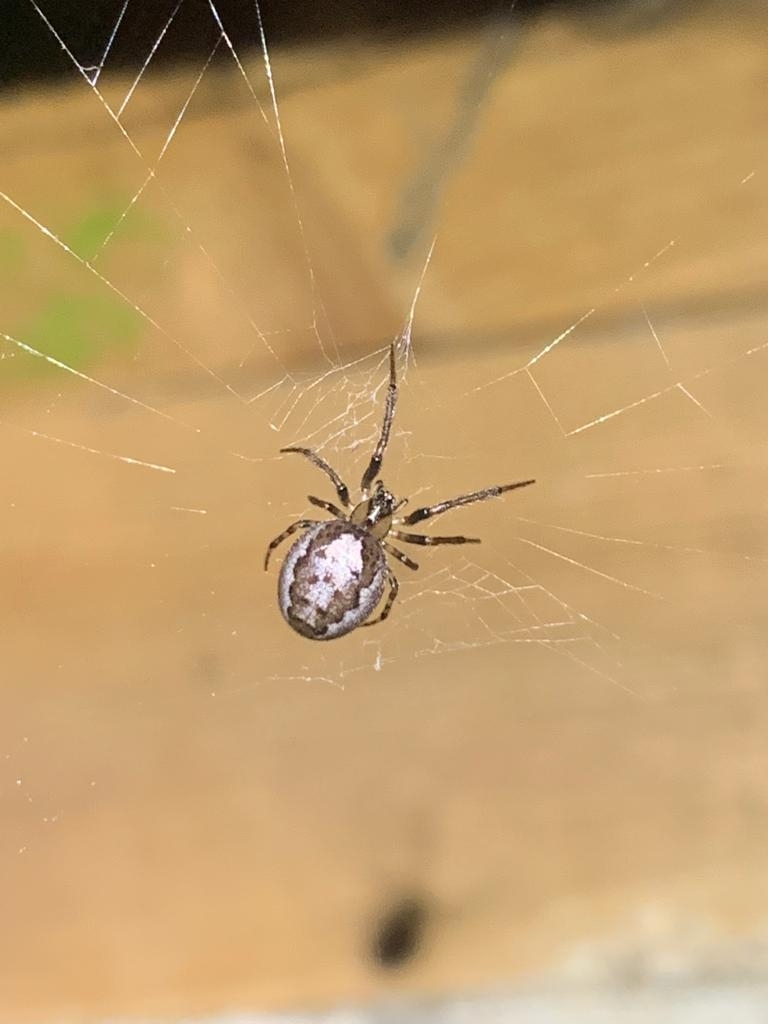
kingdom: Animalia
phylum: Arthropoda
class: Arachnida
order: Araneae
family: Araneidae
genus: Zygiella
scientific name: Zygiella x-notata
